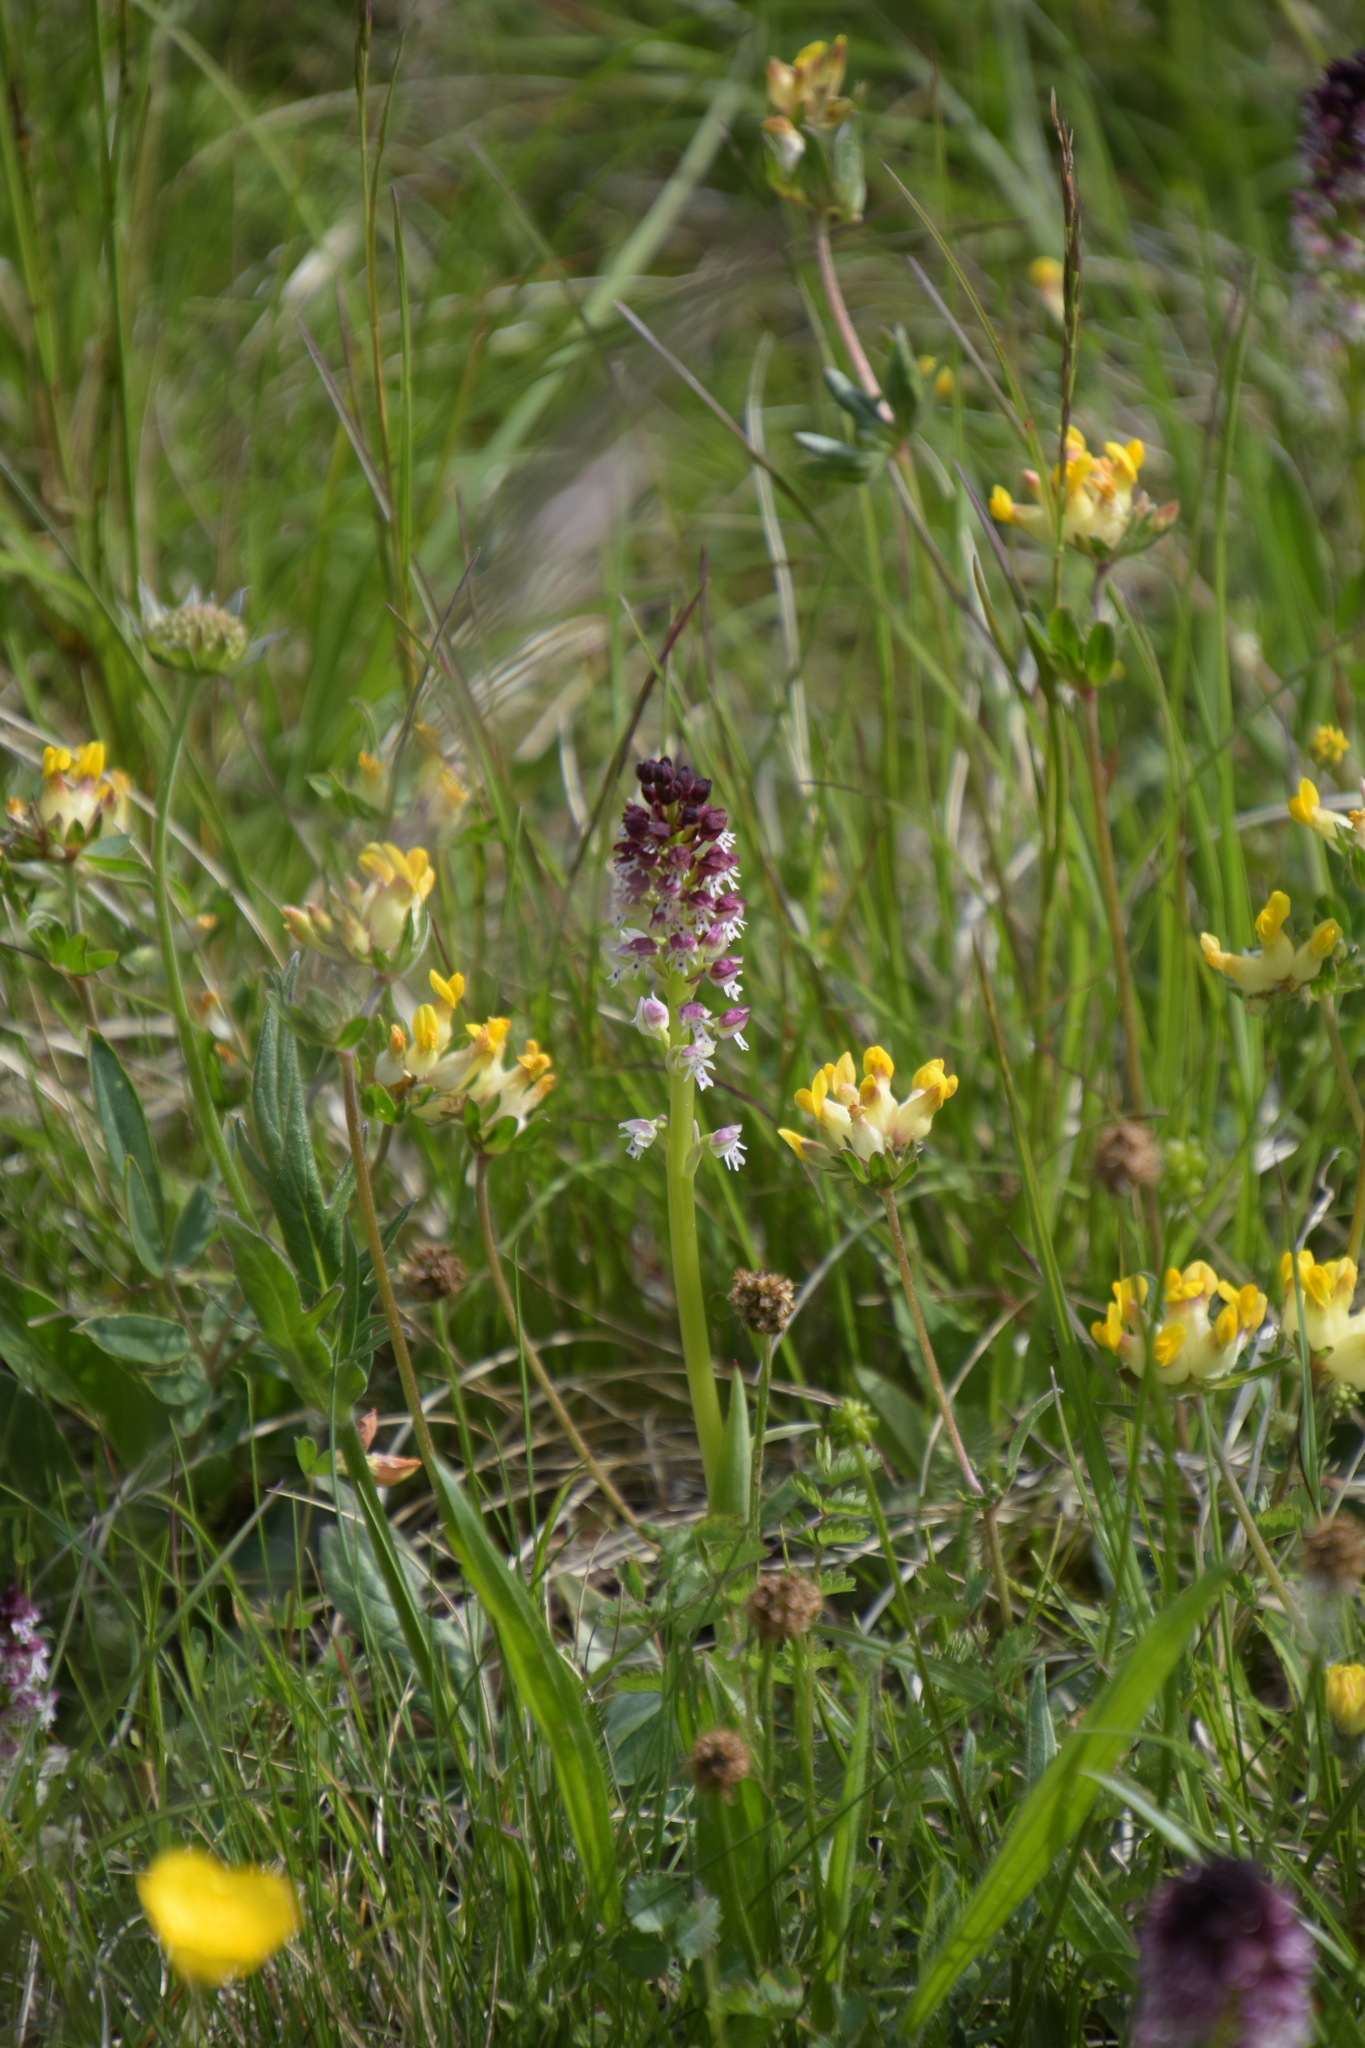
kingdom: Plantae
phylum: Tracheophyta
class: Liliopsida
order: Asparagales
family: Orchidaceae
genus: Neotinea
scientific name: Neotinea ustulata
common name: Burnt orchid
